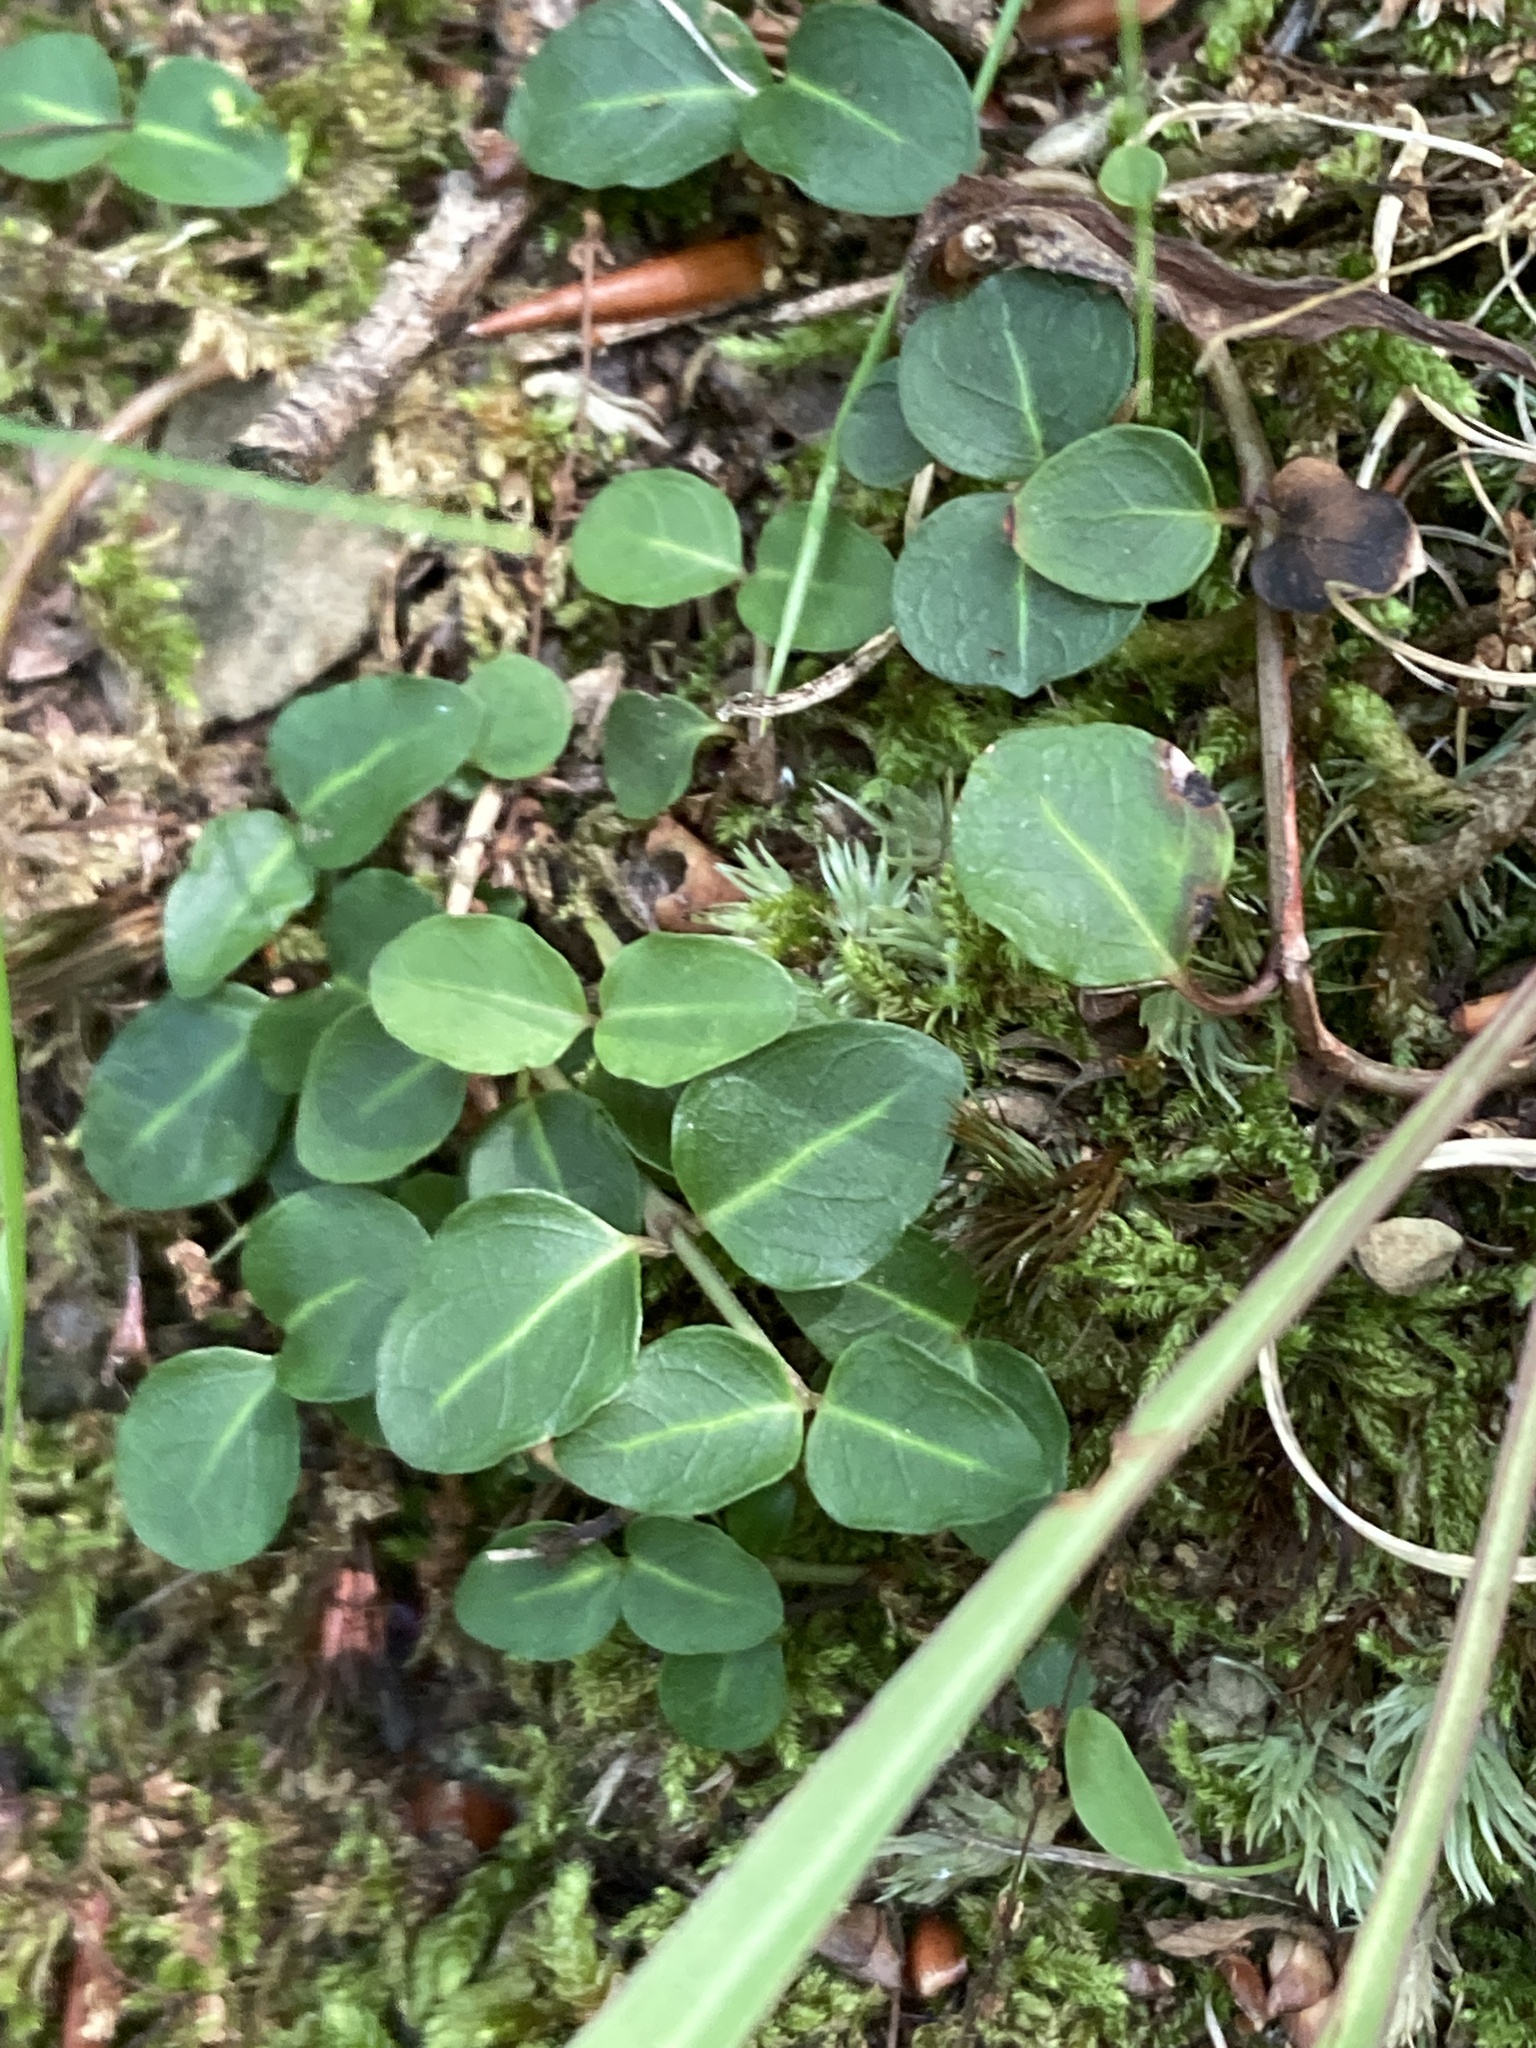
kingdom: Plantae
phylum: Tracheophyta
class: Magnoliopsida
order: Gentianales
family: Rubiaceae
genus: Mitchella
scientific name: Mitchella repens
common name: Partridge-berry
